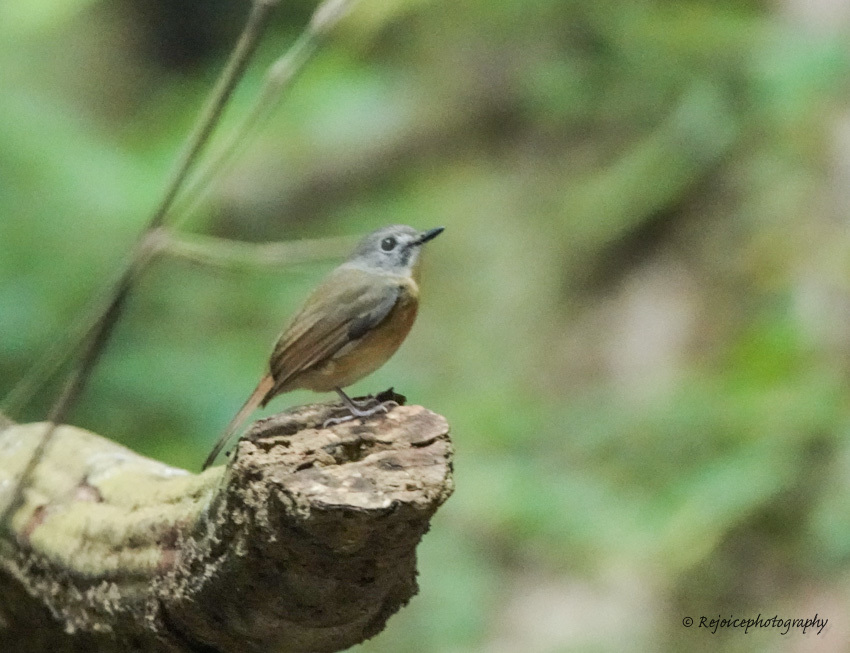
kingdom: Animalia
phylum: Chordata
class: Aves
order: Passeriformes
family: Muscicapidae
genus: Cyornis
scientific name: Cyornis poliogenys
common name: Pale-chinned blue flycatcher
